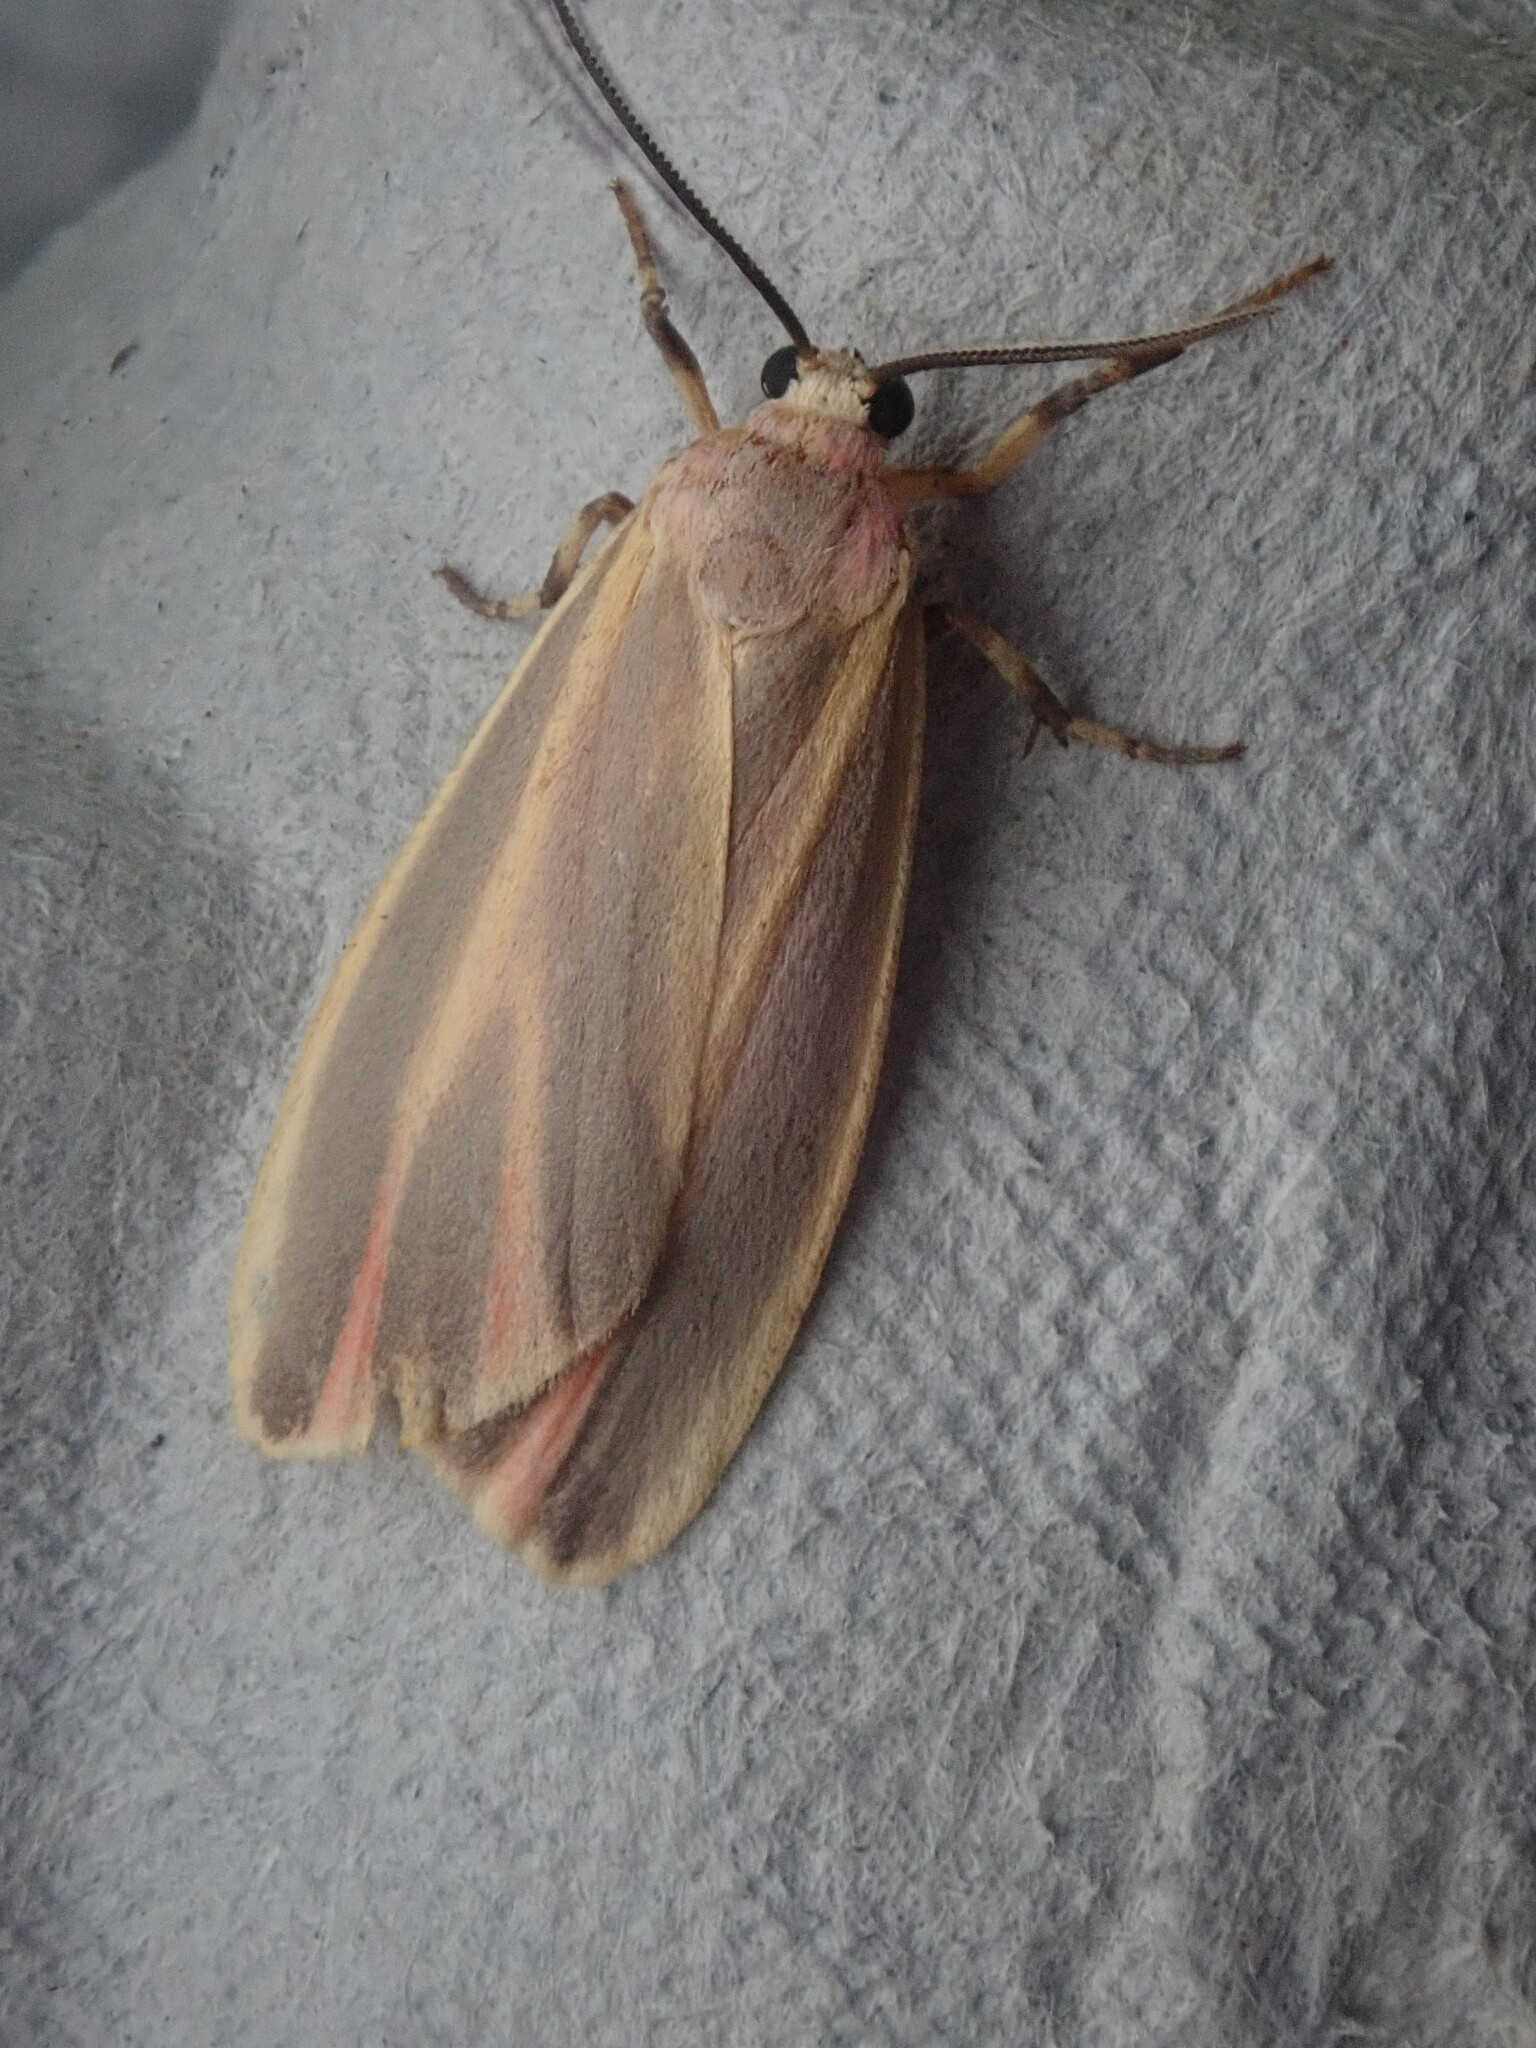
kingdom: Animalia
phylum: Arthropoda
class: Insecta
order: Lepidoptera
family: Erebidae
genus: Hypoprepia
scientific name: Hypoprepia fucosa
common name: Painted lichen moth
